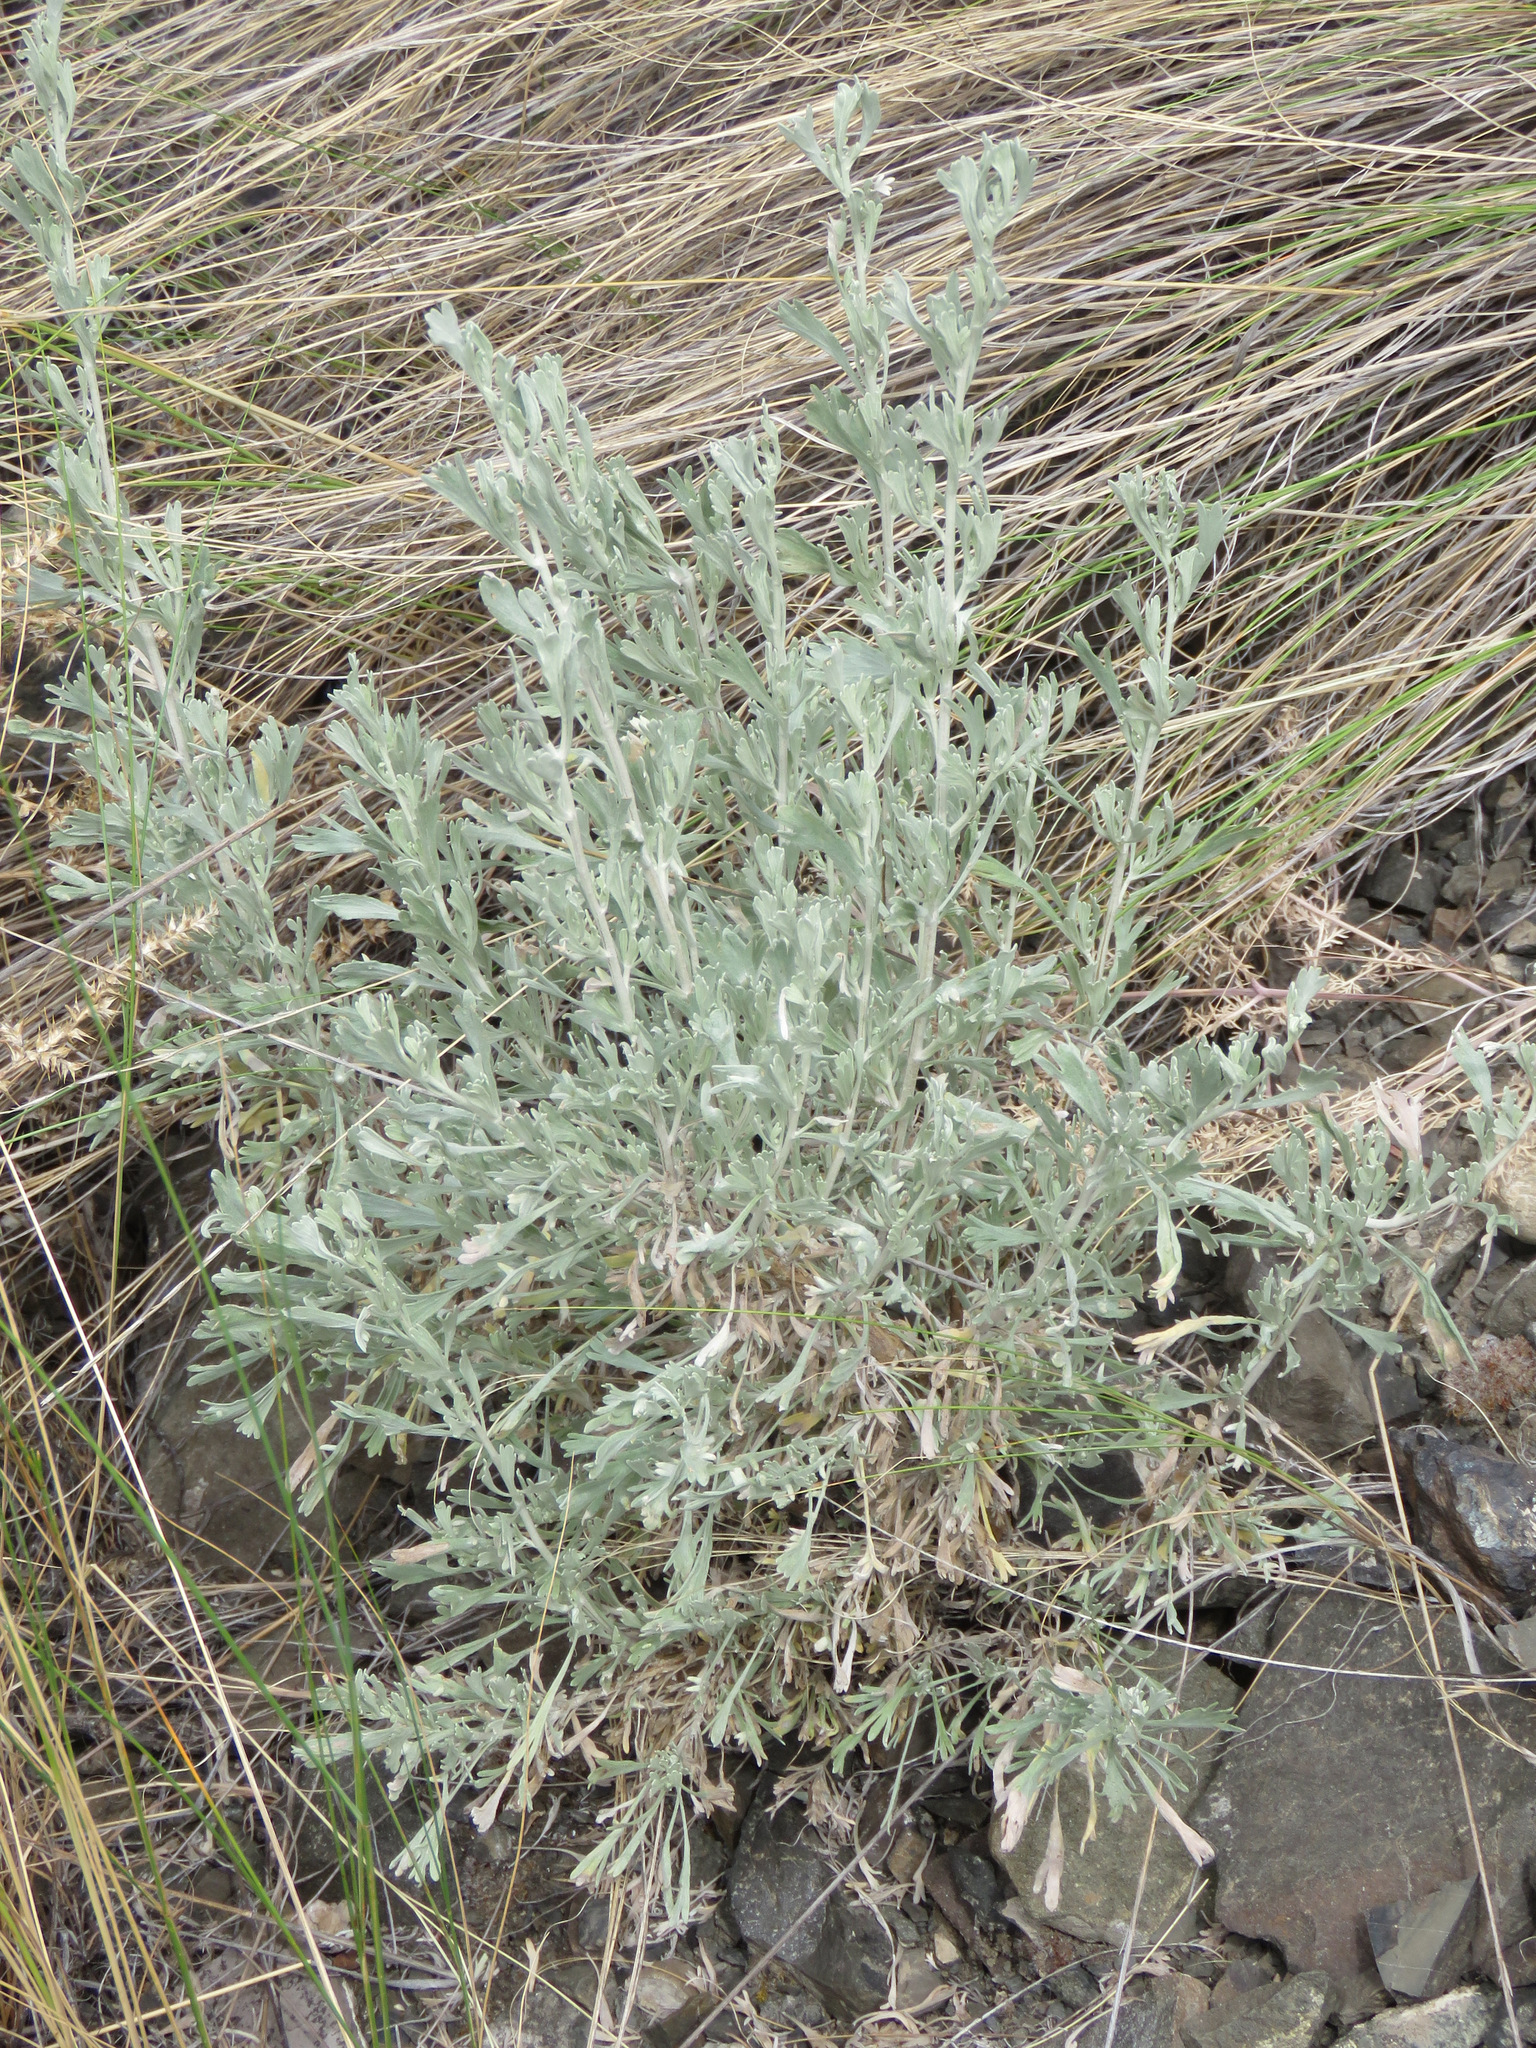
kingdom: Plantae
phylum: Tracheophyta
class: Magnoliopsida
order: Asterales
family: Asteraceae
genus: Artemisia
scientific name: Artemisia tridentata
